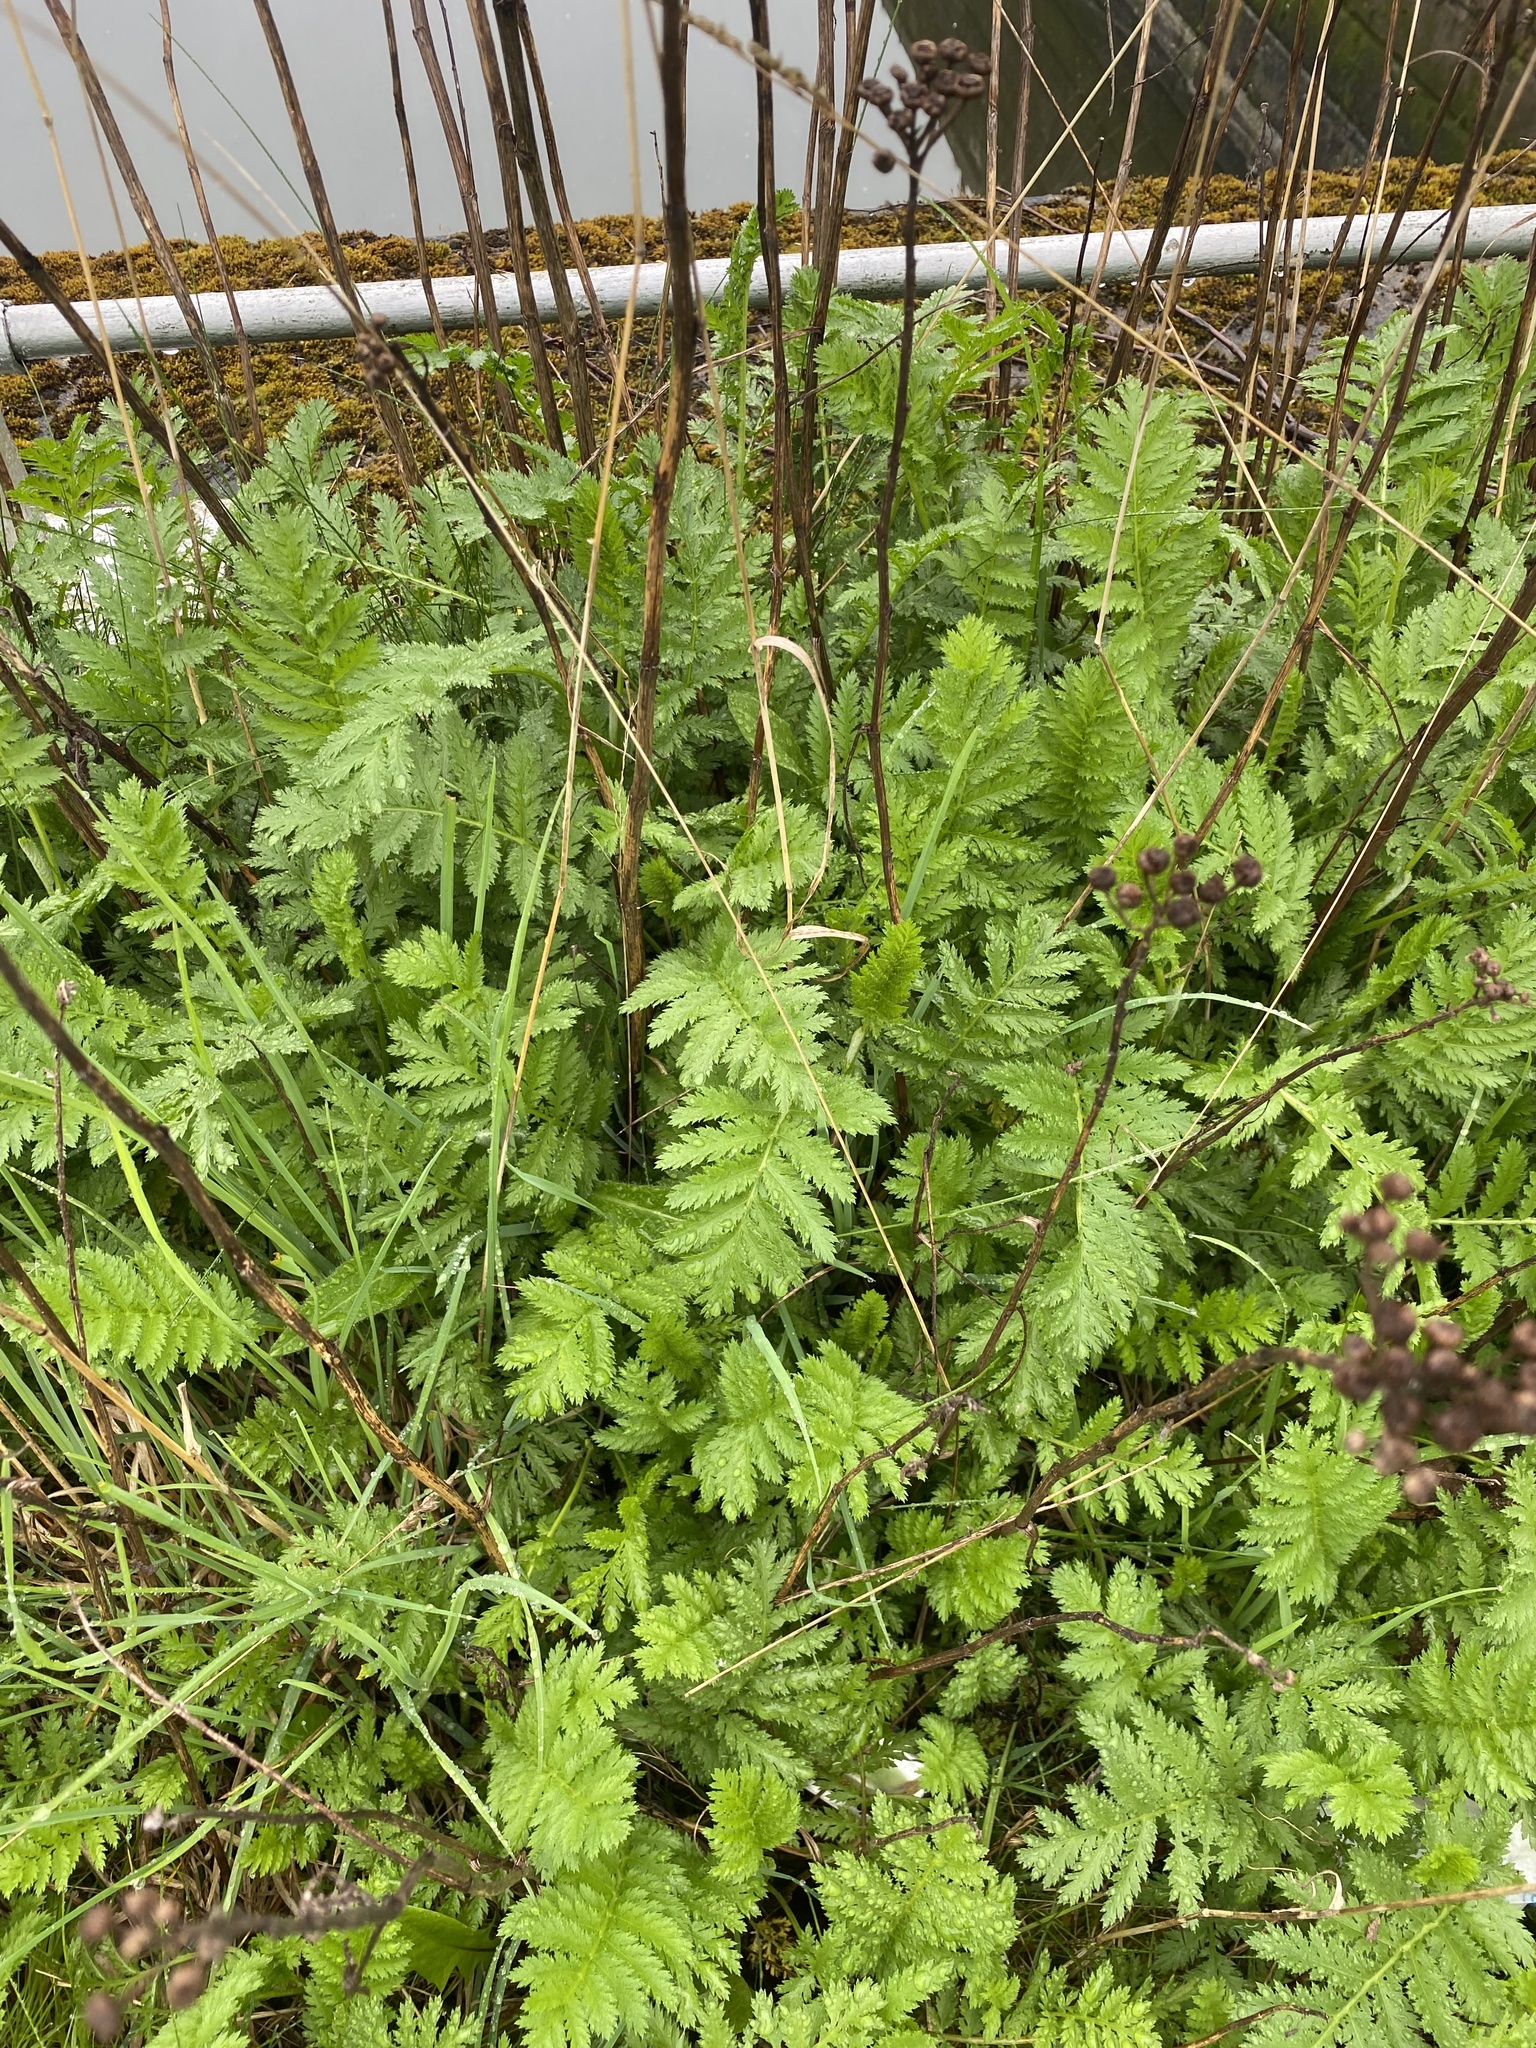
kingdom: Plantae
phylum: Tracheophyta
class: Magnoliopsida
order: Asterales
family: Asteraceae
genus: Tanacetum
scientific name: Tanacetum vulgare
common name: Common tansy
